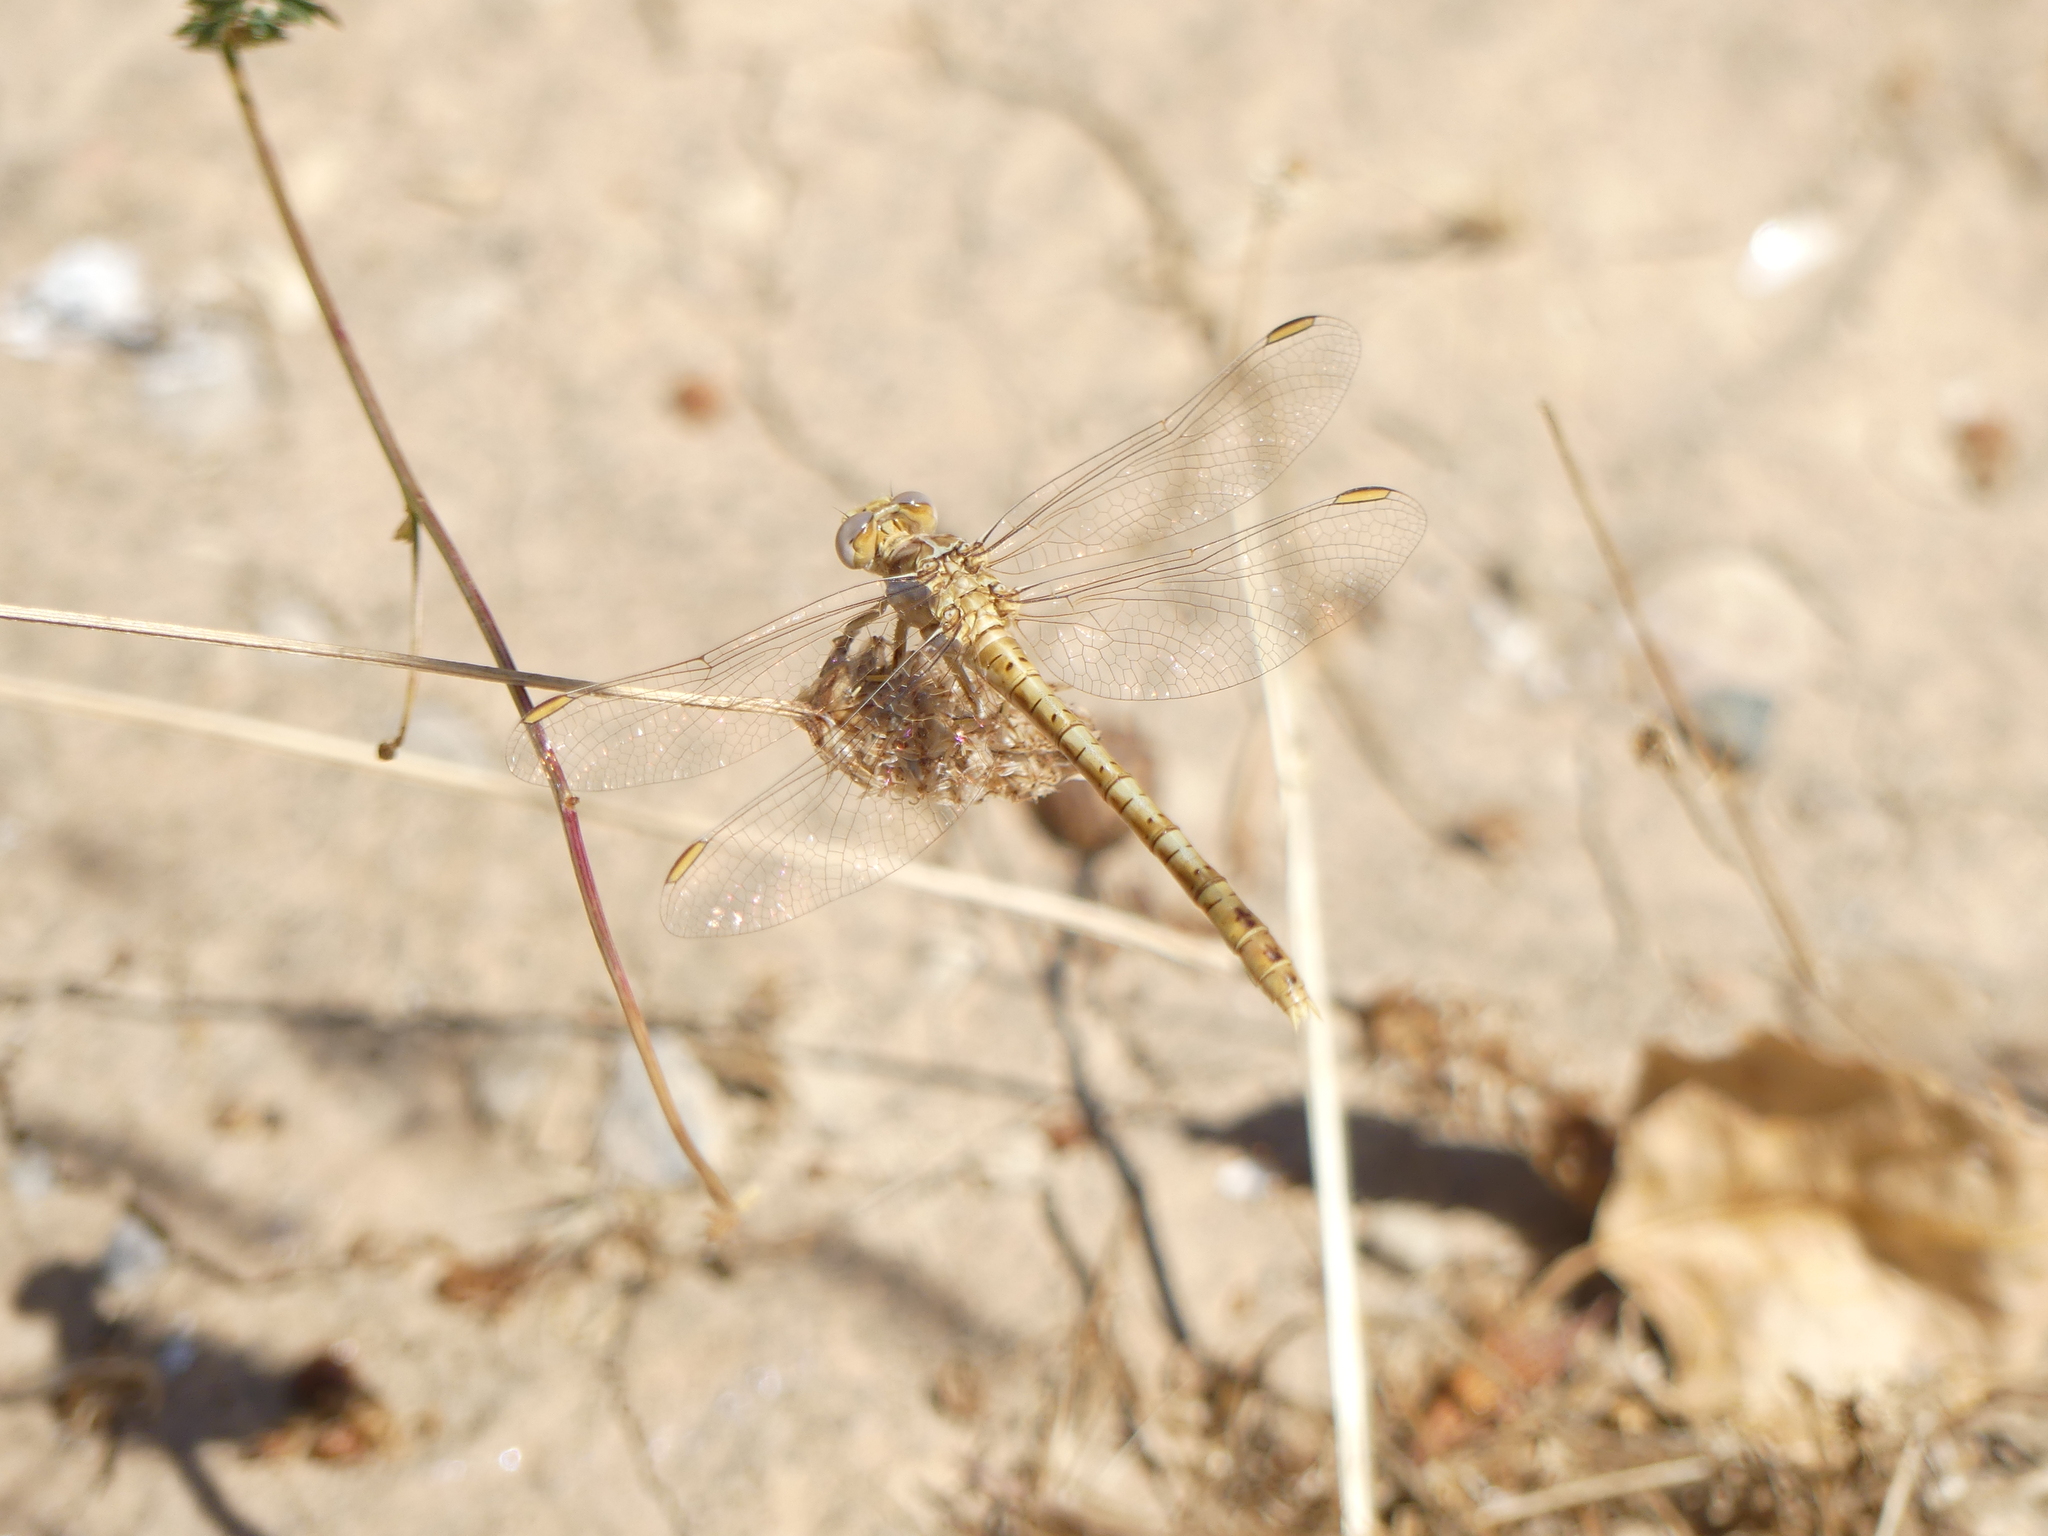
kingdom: Animalia
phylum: Arthropoda
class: Insecta
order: Odonata
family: Gomphidae
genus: Onychogomphus
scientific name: Onychogomphus costae
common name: Faded pincertail
